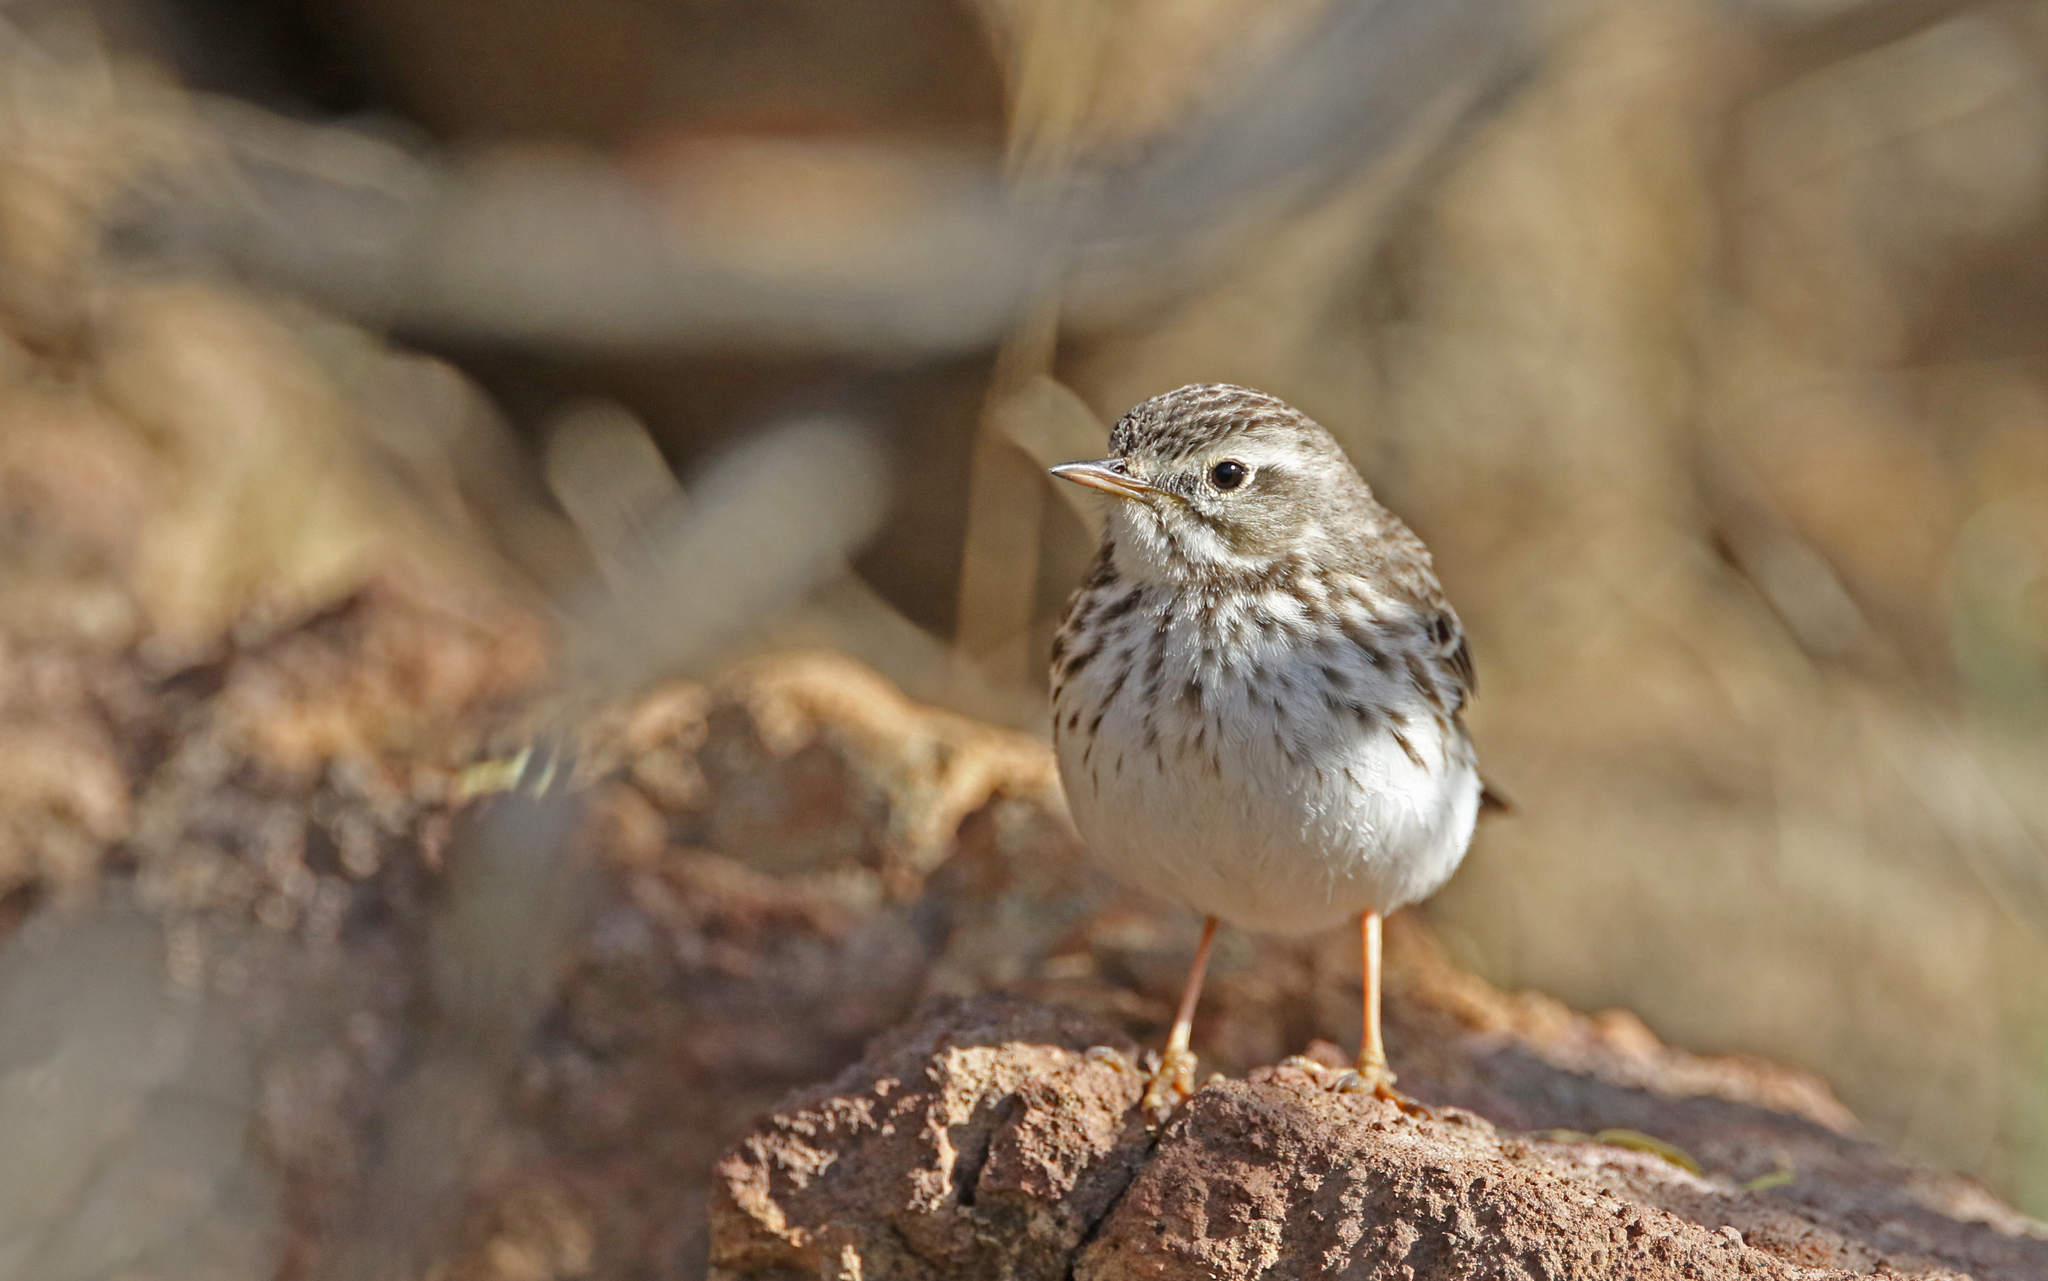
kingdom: Animalia
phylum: Chordata
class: Aves
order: Passeriformes
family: Motacillidae
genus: Anthus
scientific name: Anthus berthelotii
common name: Berthelot's pipit
